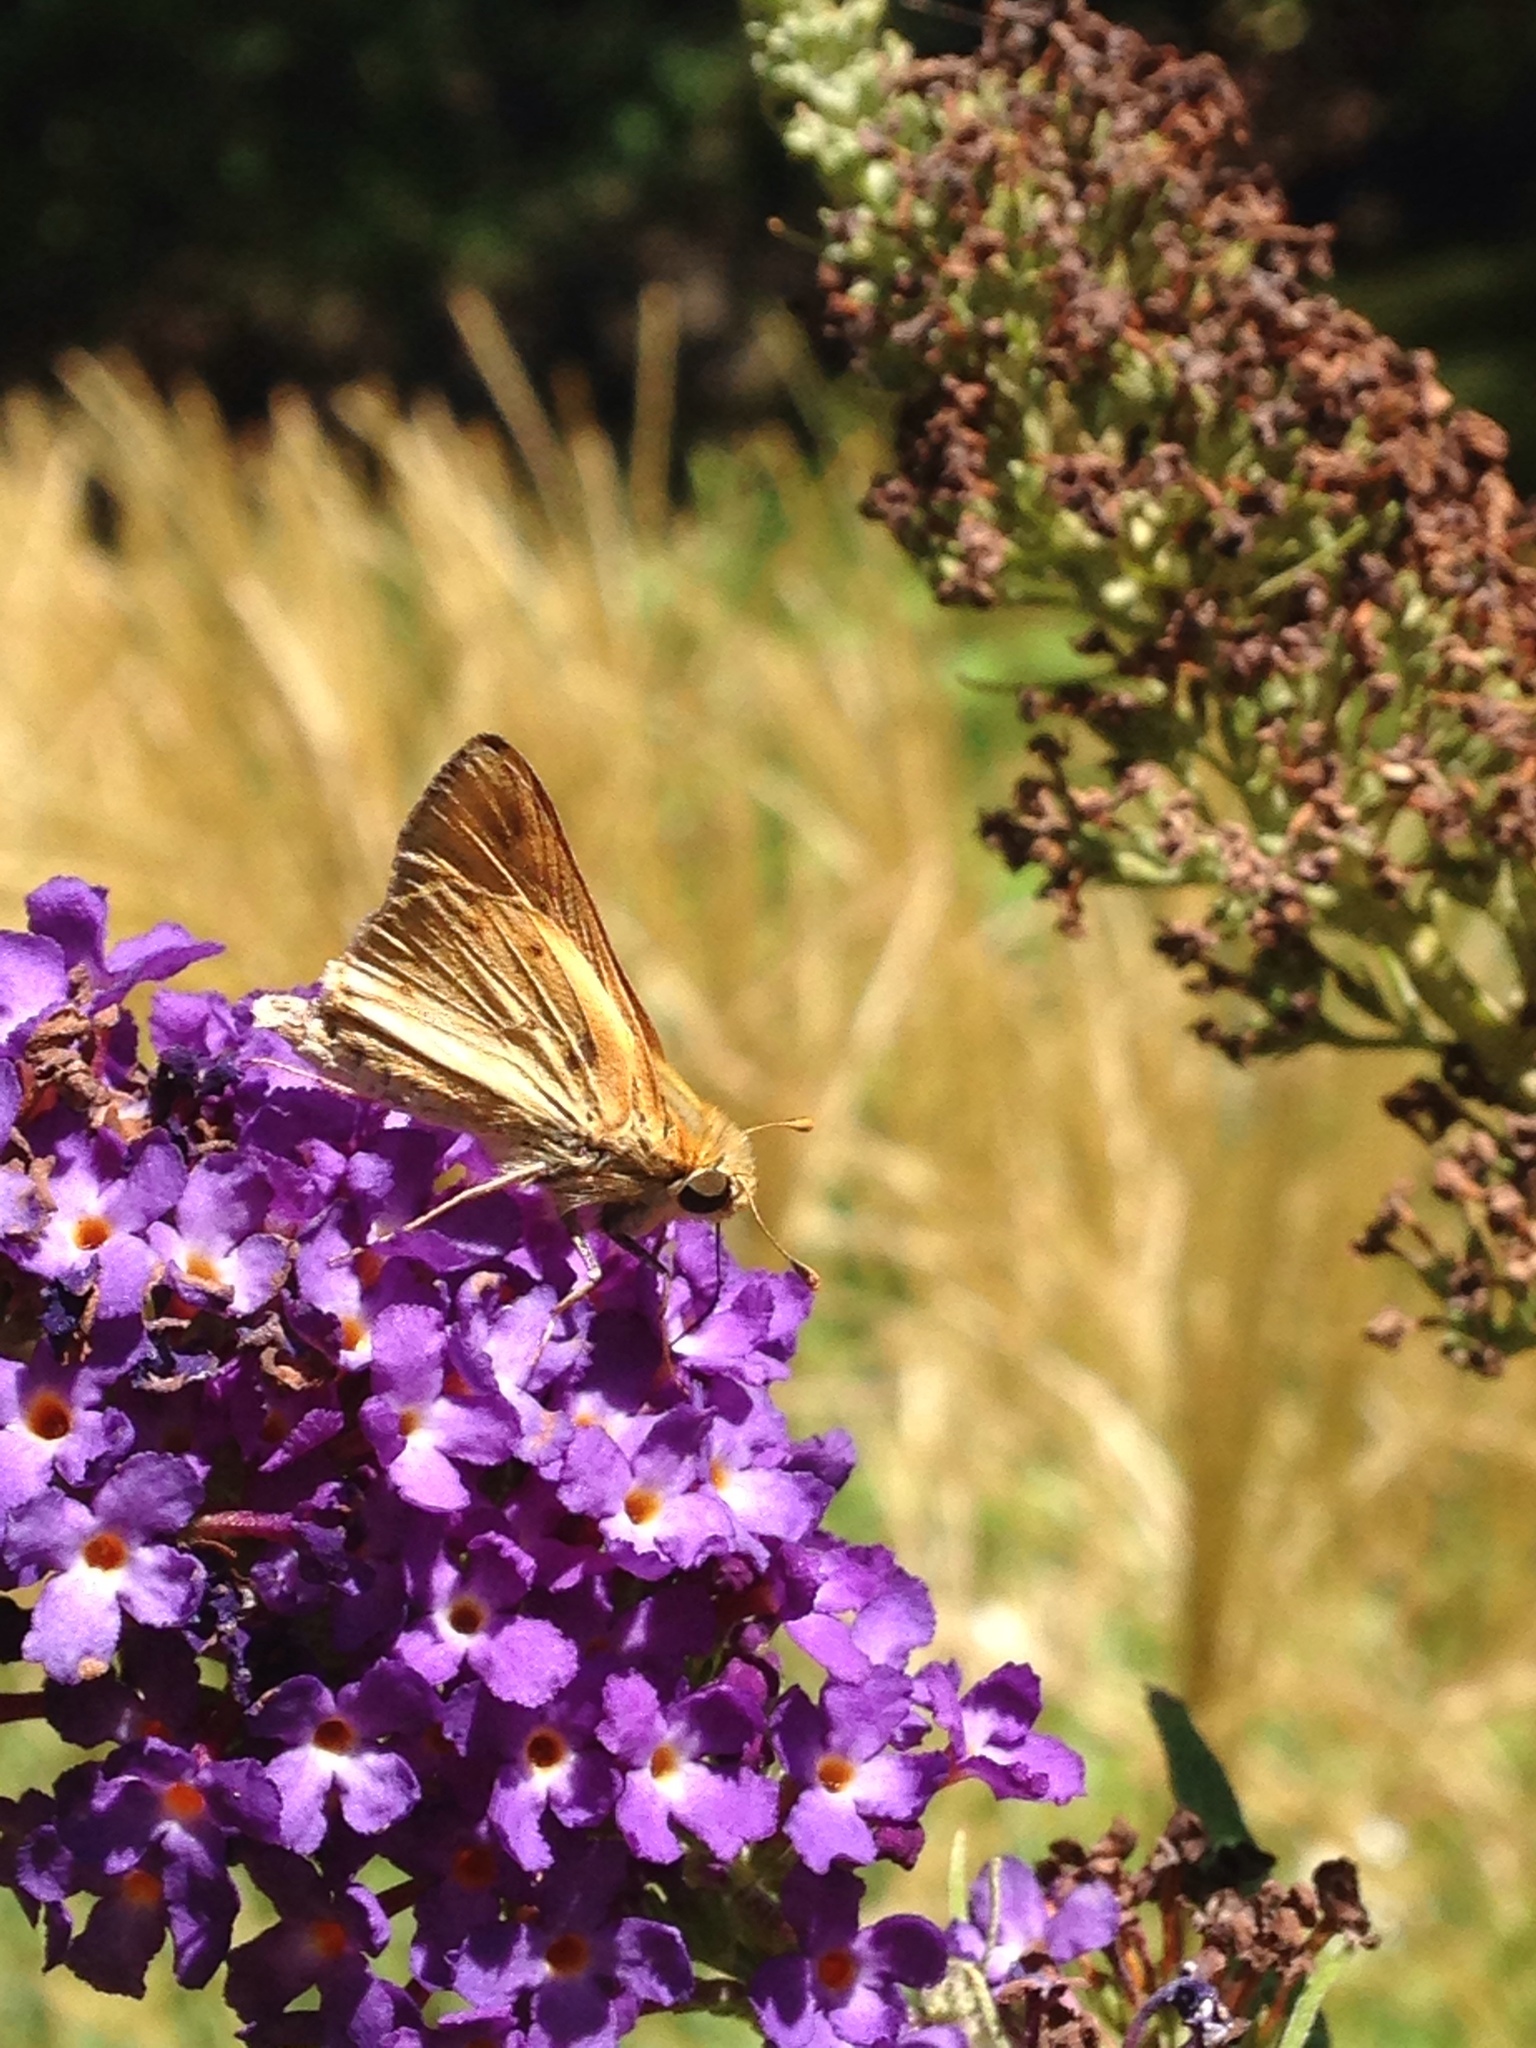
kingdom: Animalia
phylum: Arthropoda
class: Insecta
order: Lepidoptera
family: Hesperiidae
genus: Hylephila
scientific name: Hylephila phyleus
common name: Fiery skipper
